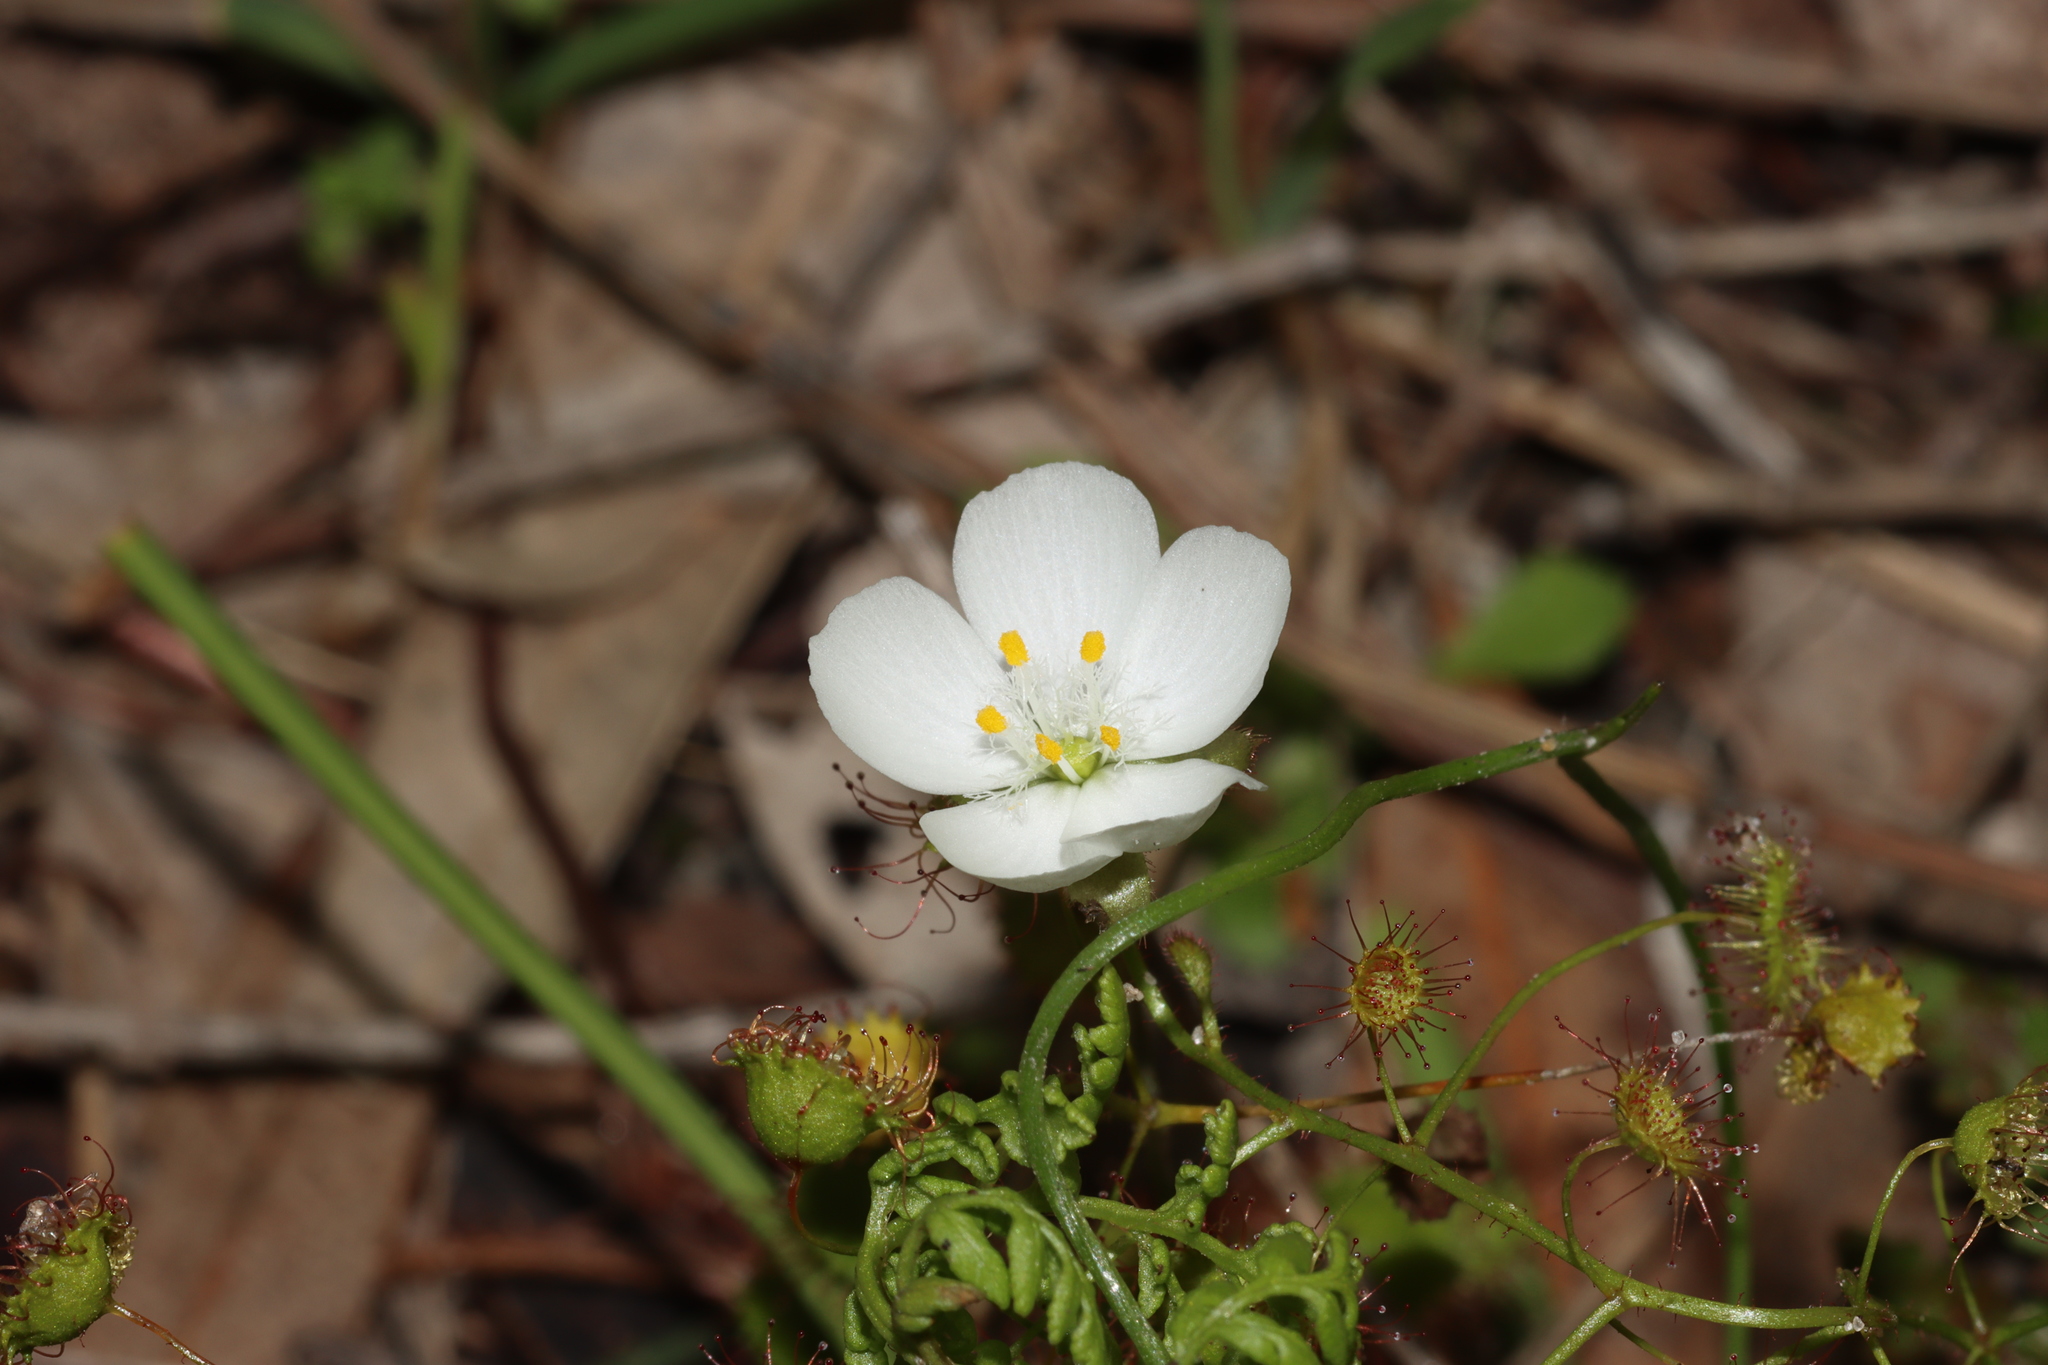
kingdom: Plantae
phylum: Tracheophyta
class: Magnoliopsida
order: Caryophyllales
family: Droseraceae
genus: Drosera
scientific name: Drosera planchonii
